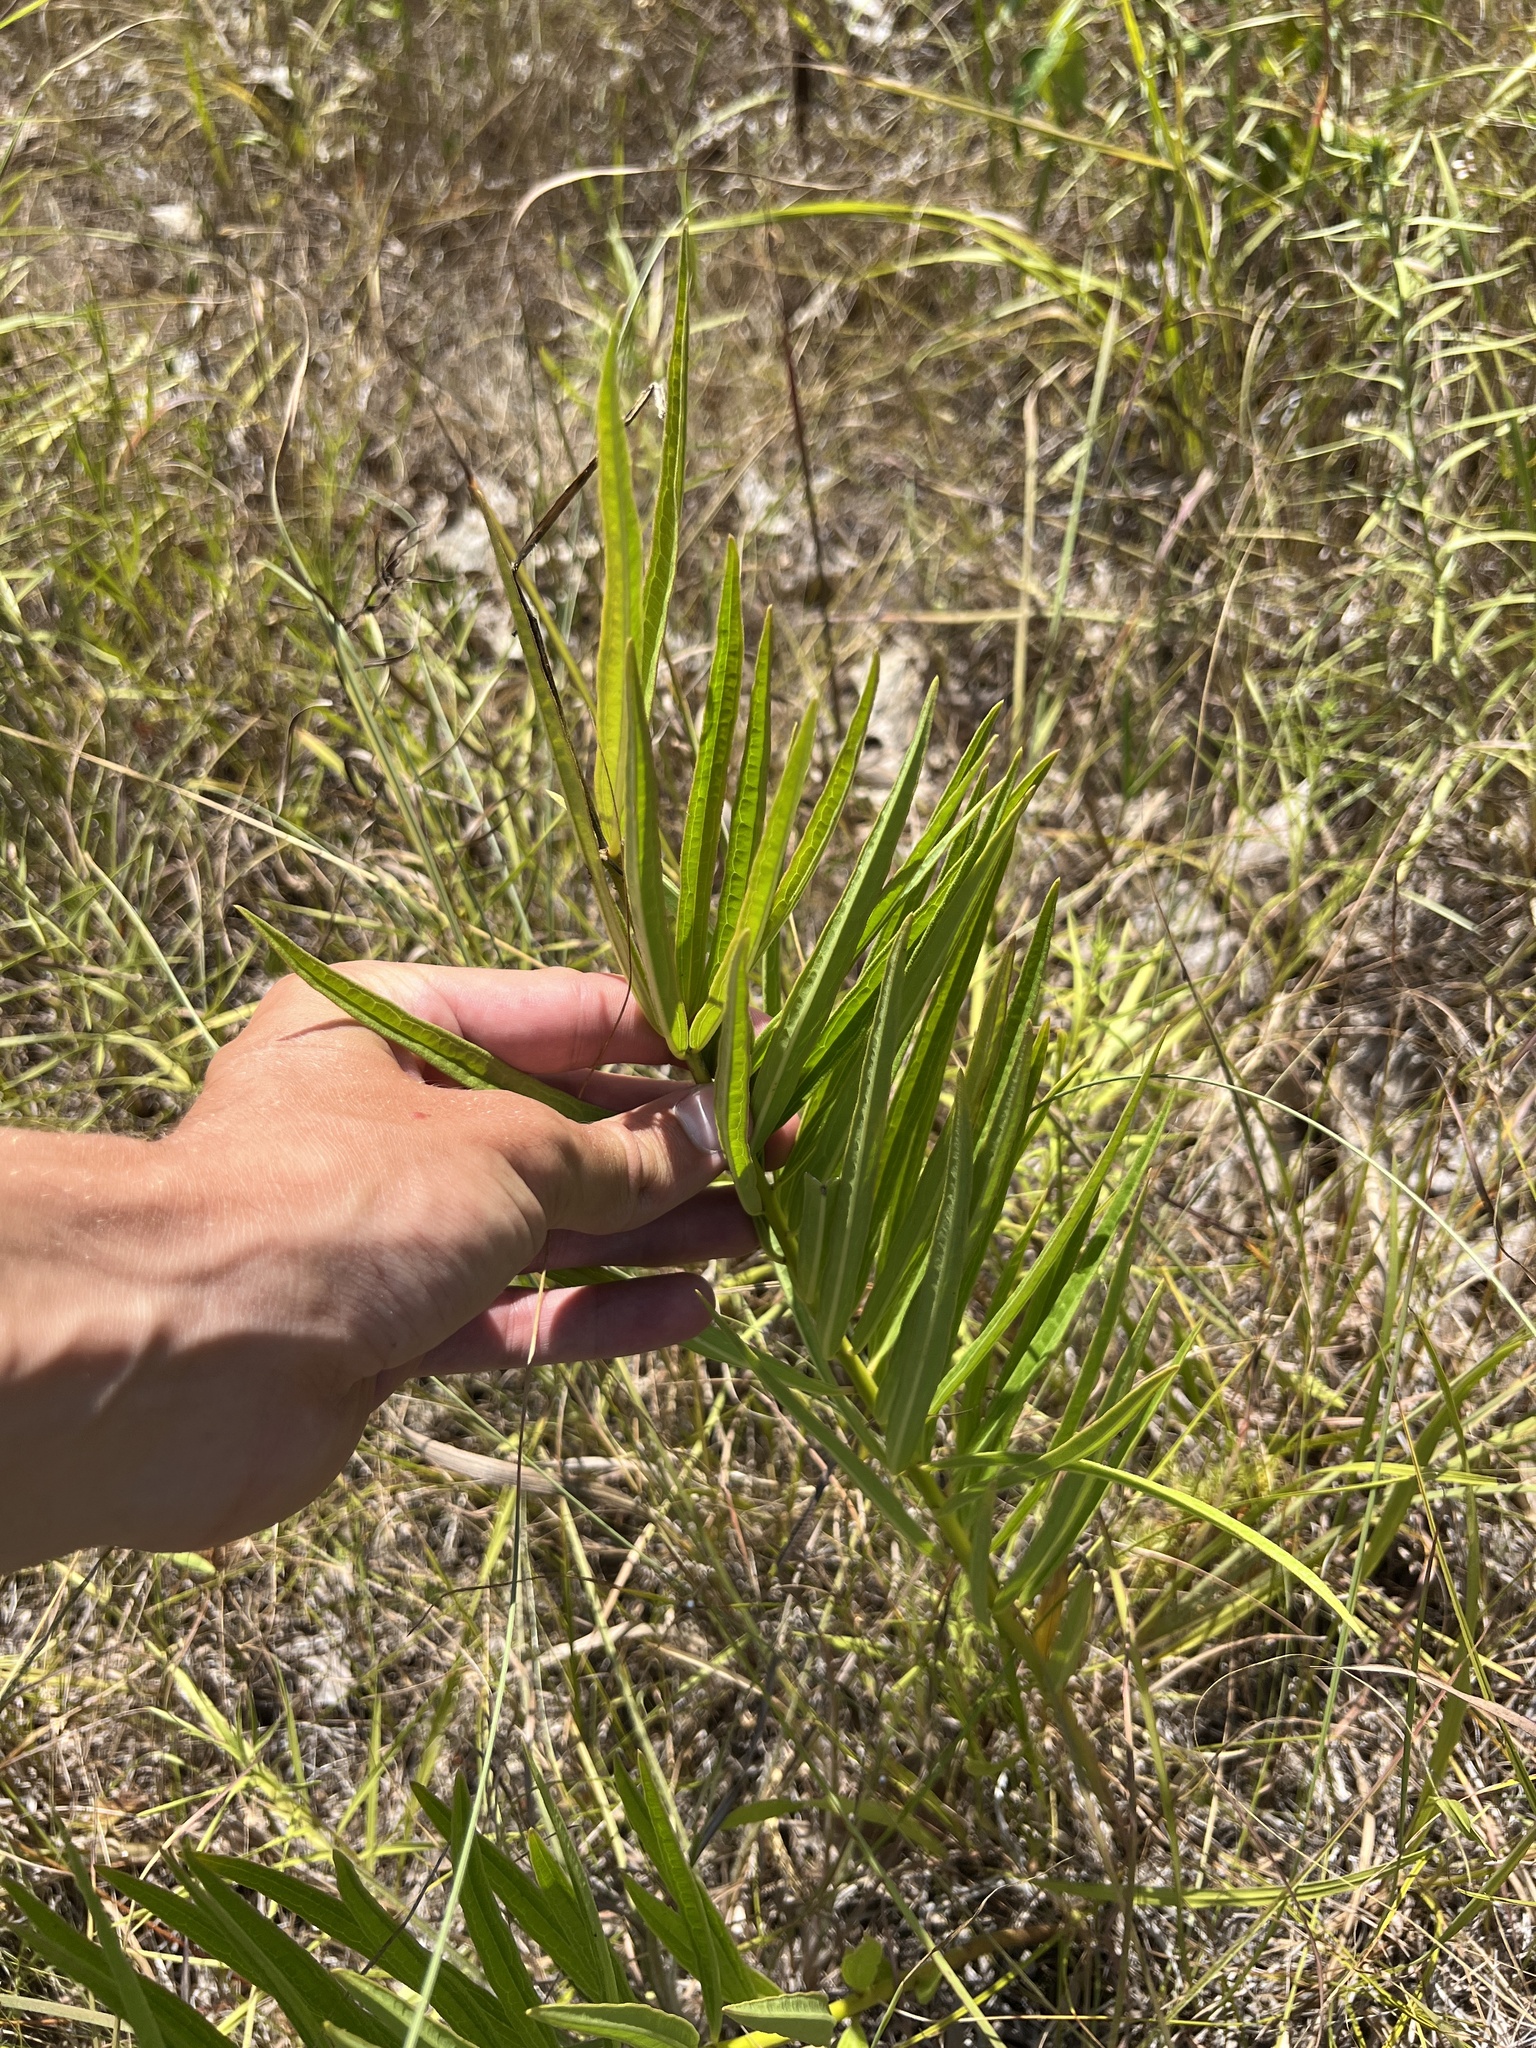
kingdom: Plantae
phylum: Tracheophyta
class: Magnoliopsida
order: Gentianales
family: Apocynaceae
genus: Asclepias
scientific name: Asclepias hirtella
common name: Prairie milkweed
